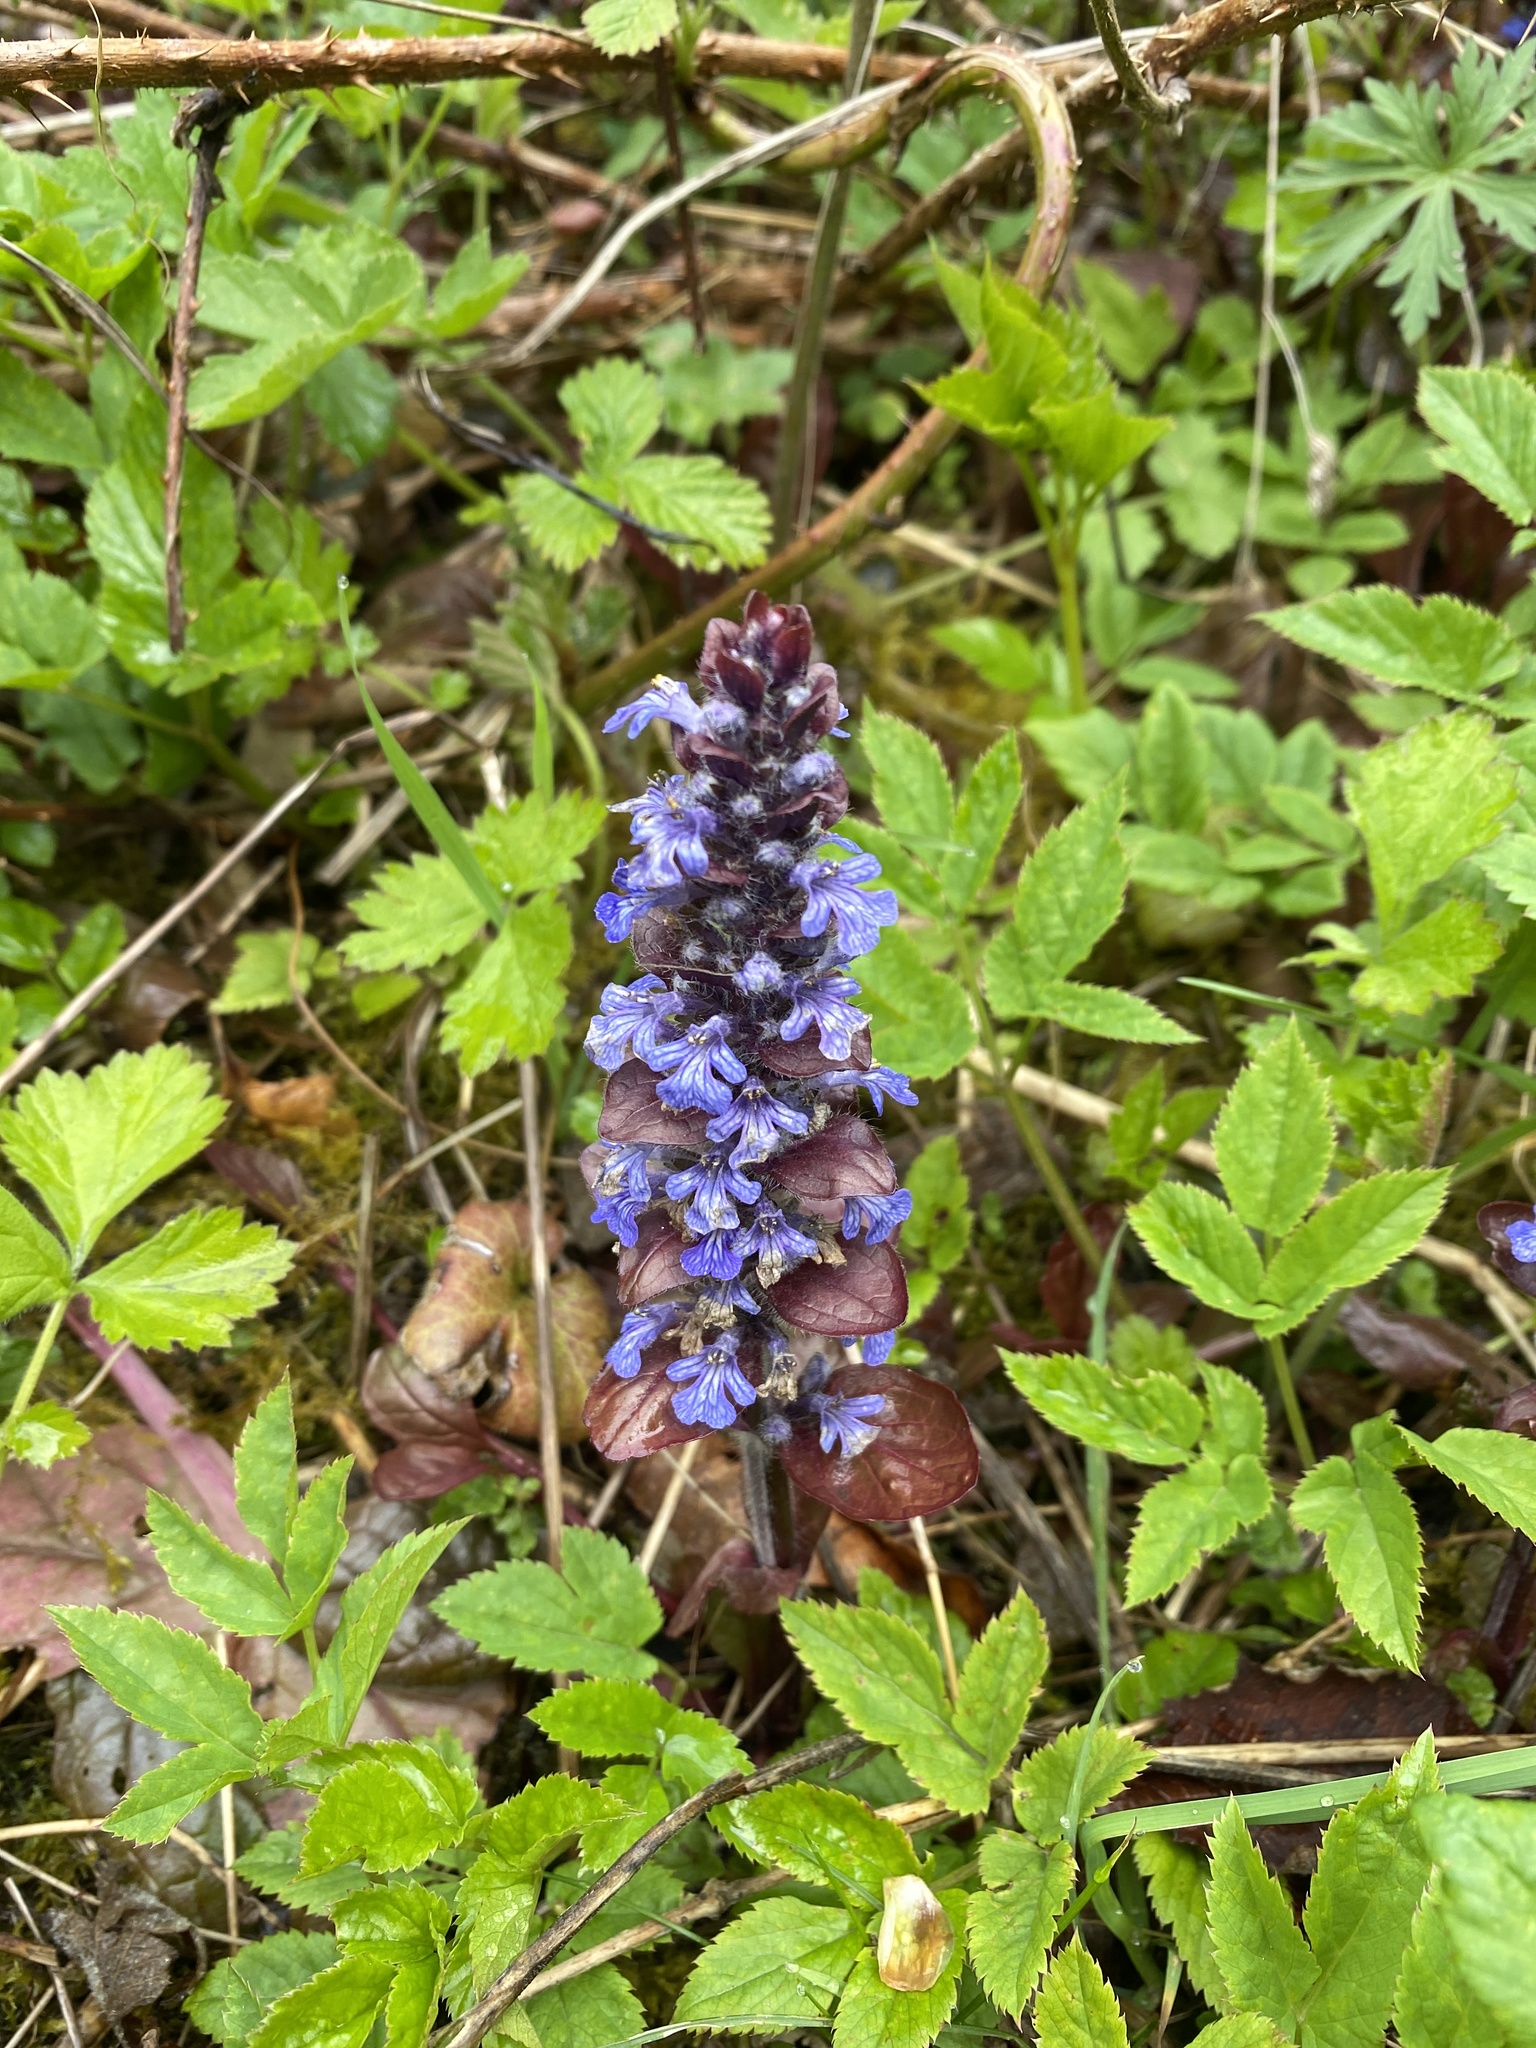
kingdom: Plantae
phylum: Tracheophyta
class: Magnoliopsida
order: Lamiales
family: Lamiaceae
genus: Ajuga
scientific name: Ajuga reptans
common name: Bugle
